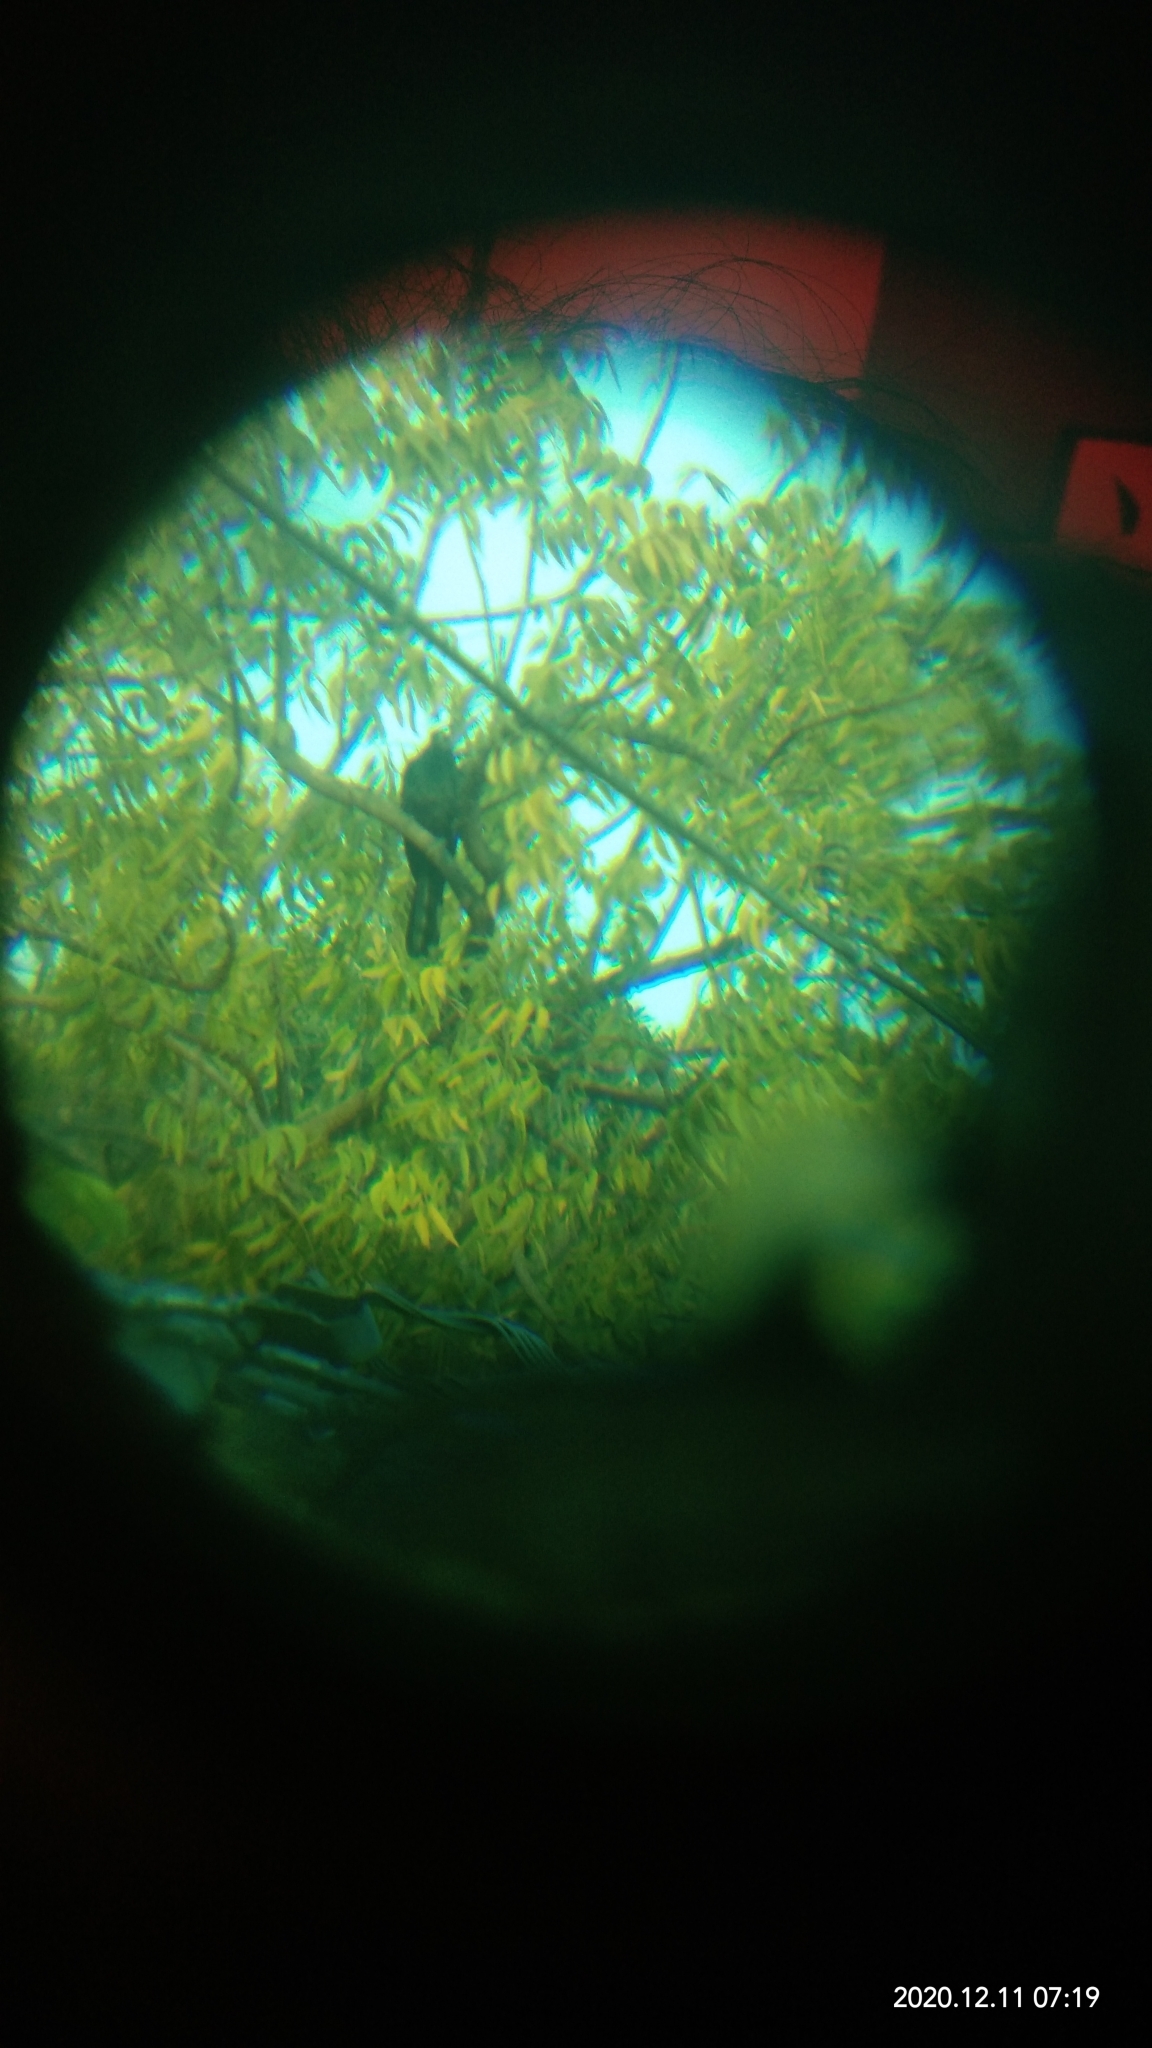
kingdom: Animalia
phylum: Chordata
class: Aves
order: Cuculiformes
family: Cuculidae
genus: Eudynamys
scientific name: Eudynamys scolopaceus
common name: Asian koel
